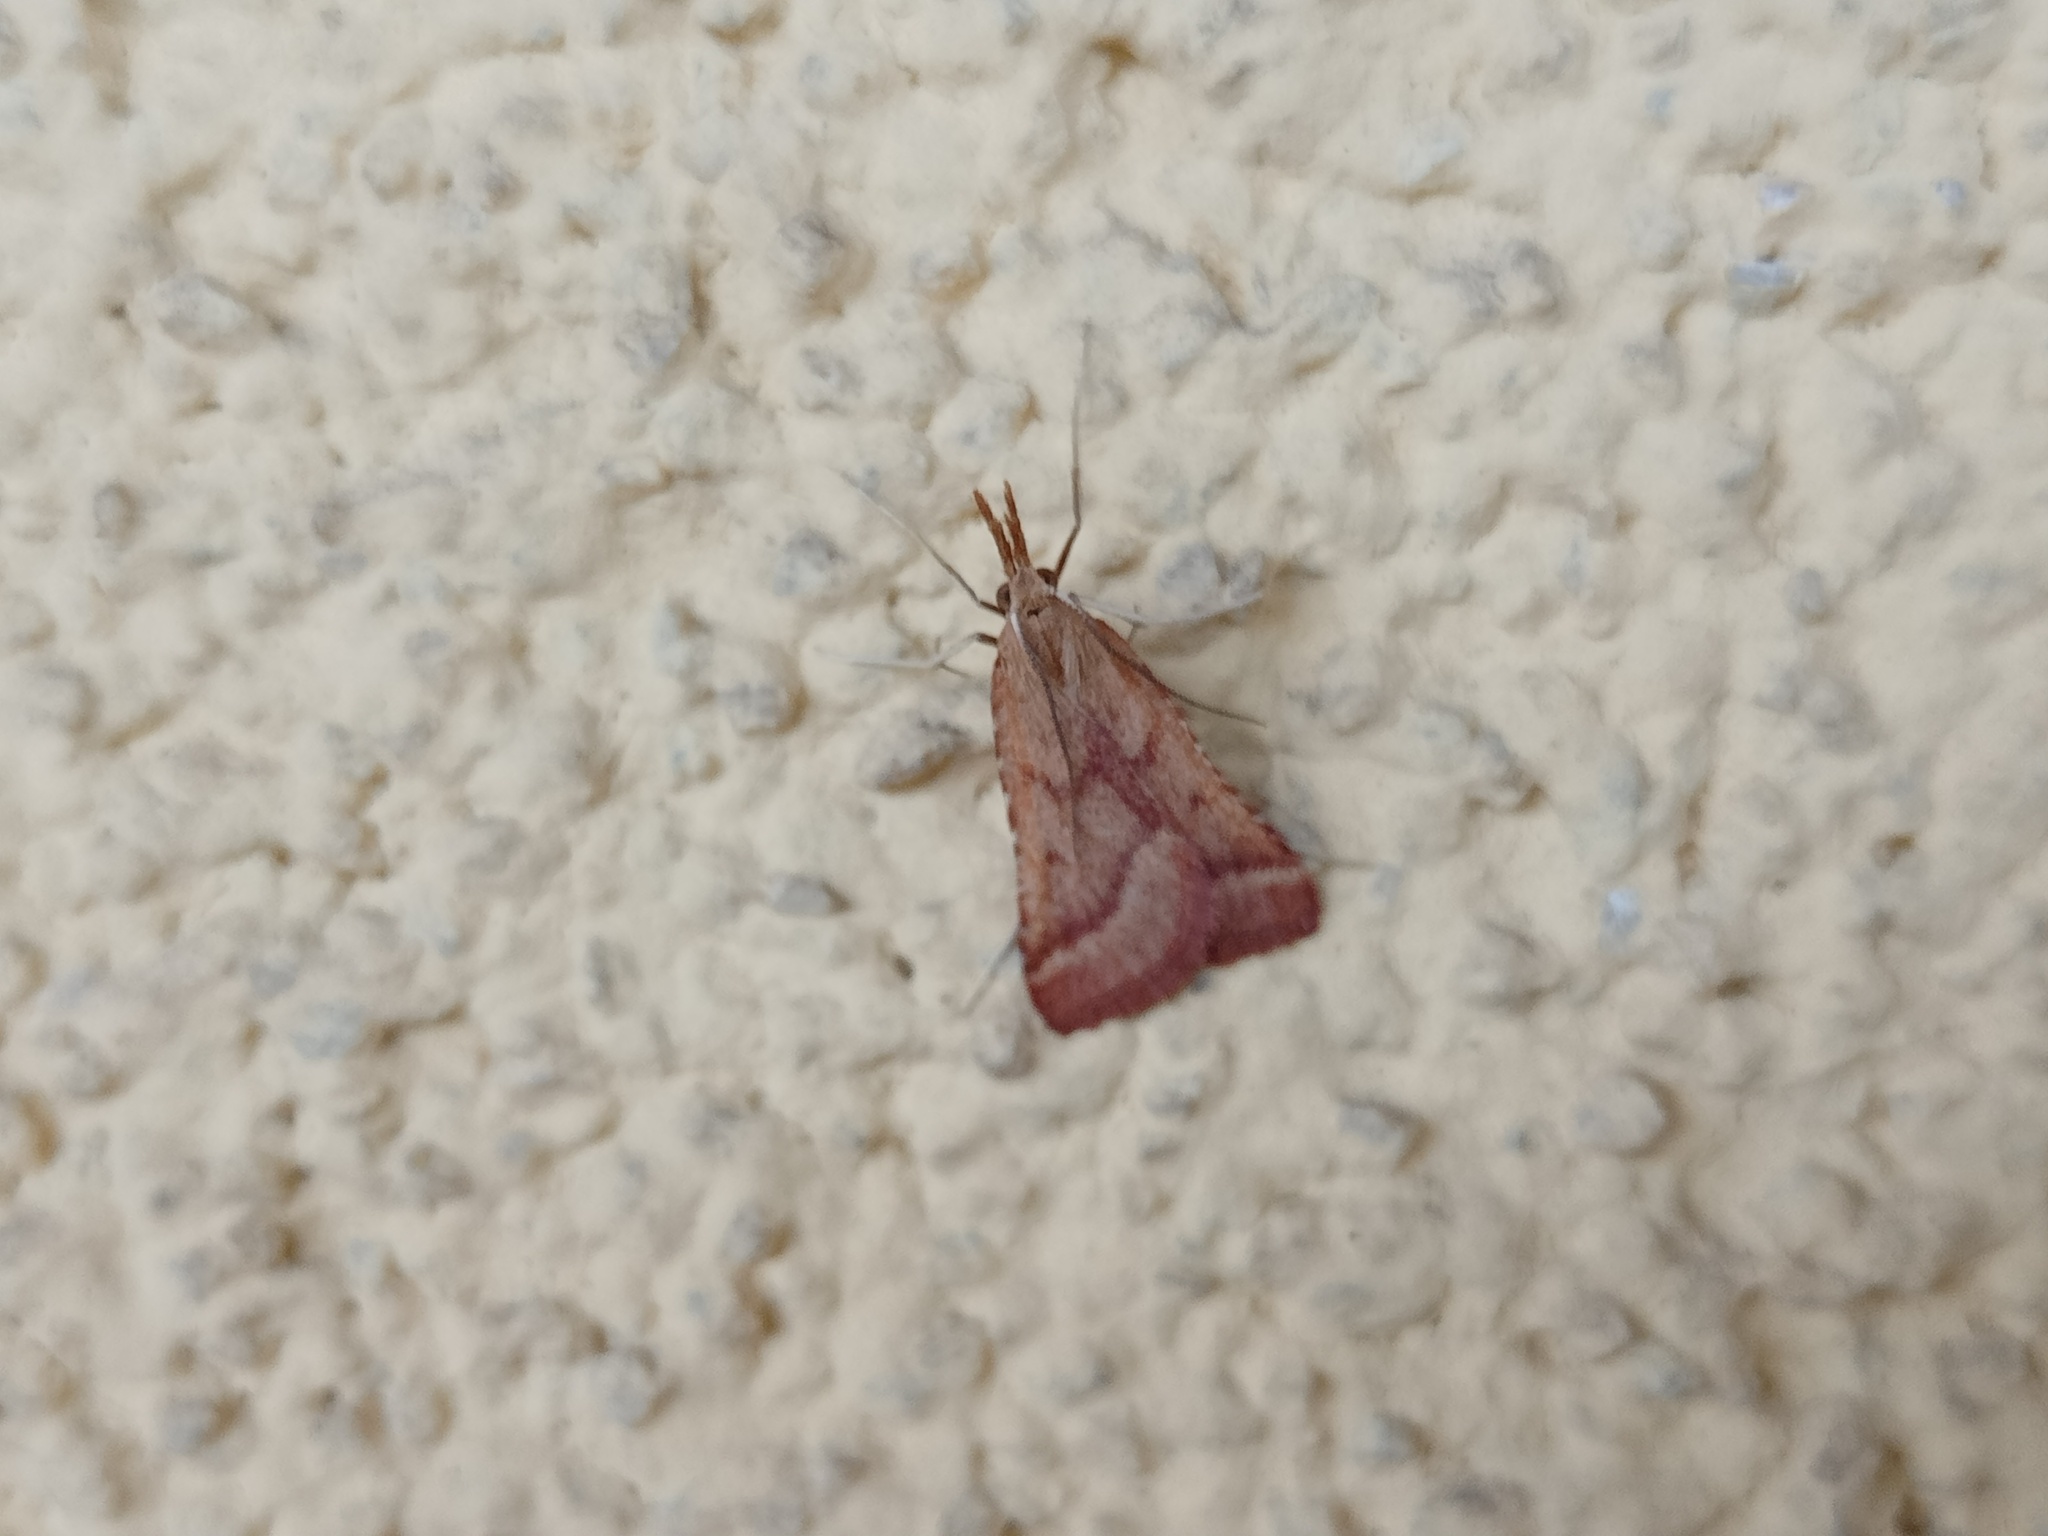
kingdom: Animalia
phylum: Arthropoda
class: Insecta
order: Lepidoptera
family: Pyralidae
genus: Synaphe
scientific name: Synaphe punctalis
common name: Long-legged tabby
